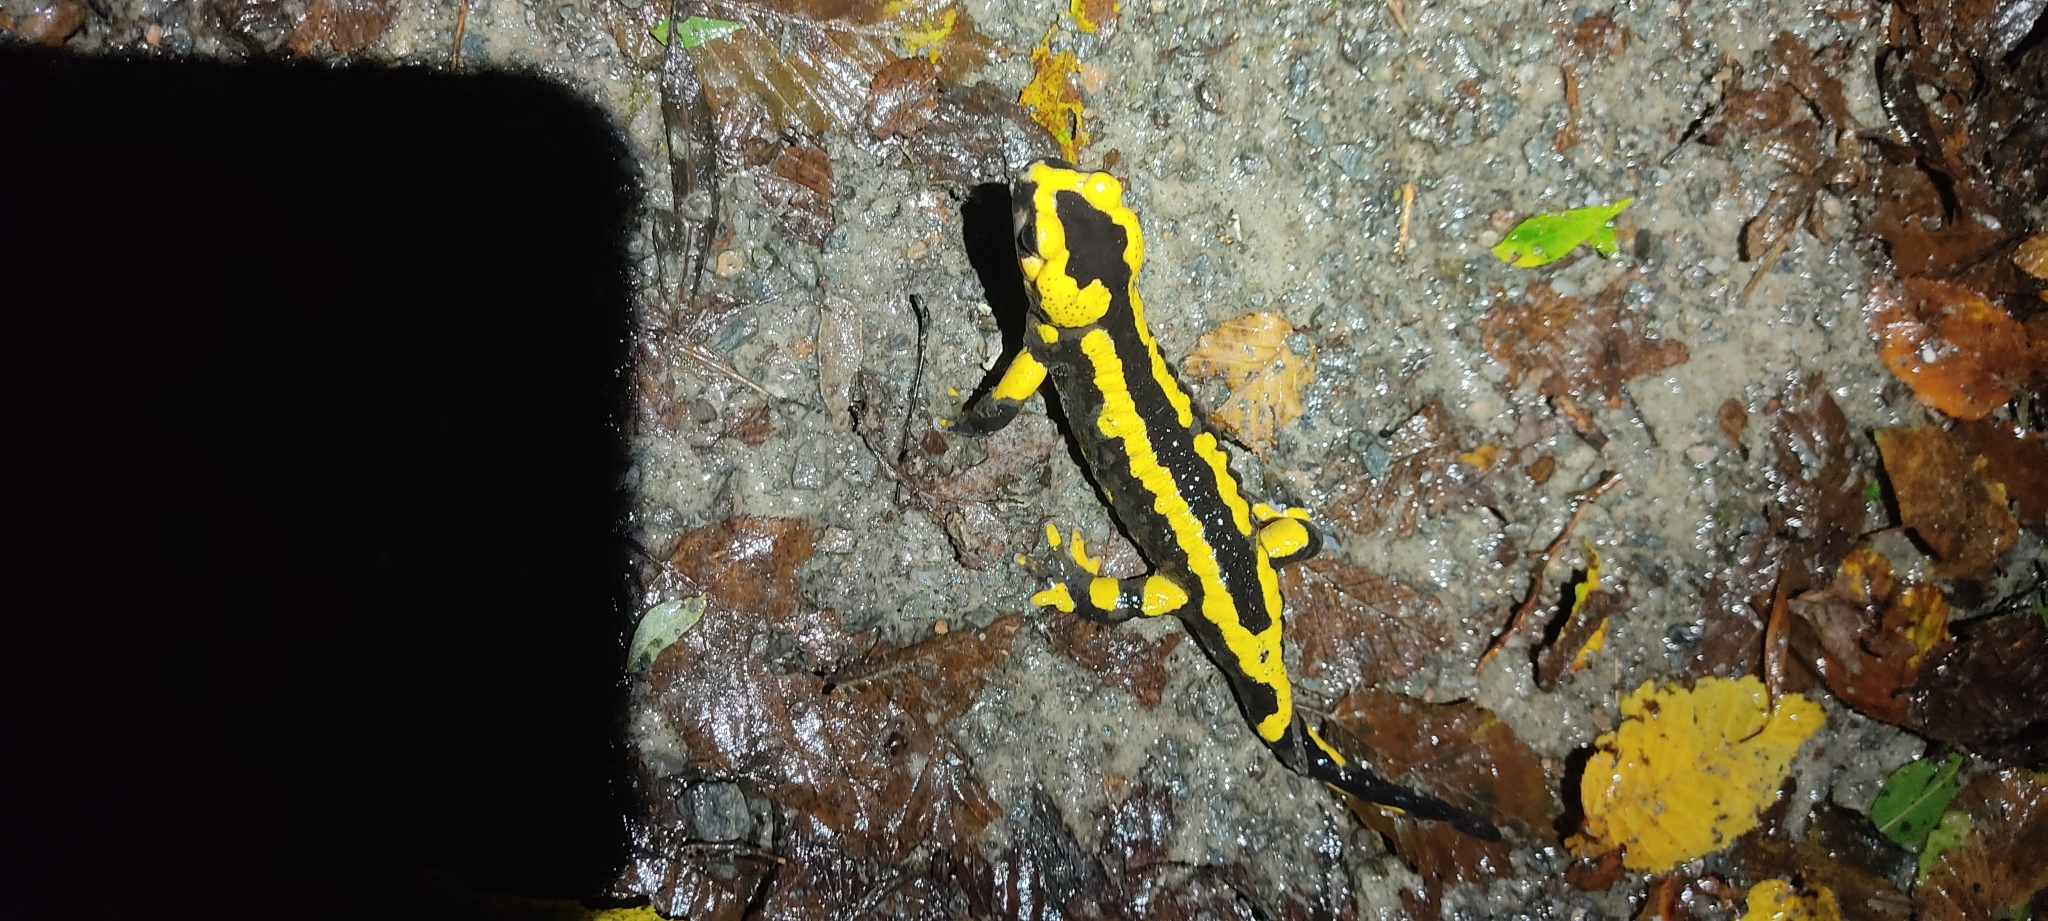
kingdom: Animalia
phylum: Chordata
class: Amphibia
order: Caudata
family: Salamandridae
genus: Salamandra
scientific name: Salamandra salamandra
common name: Fire salamander
